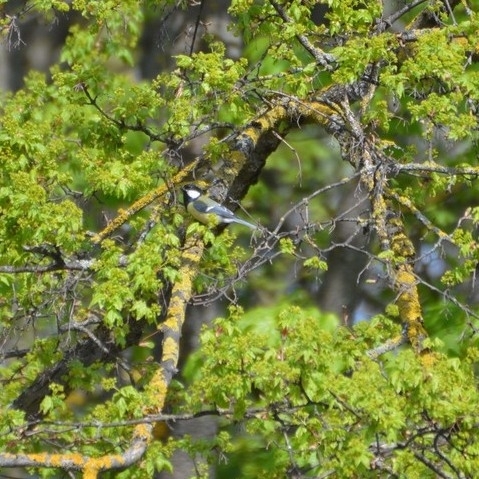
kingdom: Animalia
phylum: Chordata
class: Aves
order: Passeriformes
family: Paridae
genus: Parus
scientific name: Parus major
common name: Great tit
